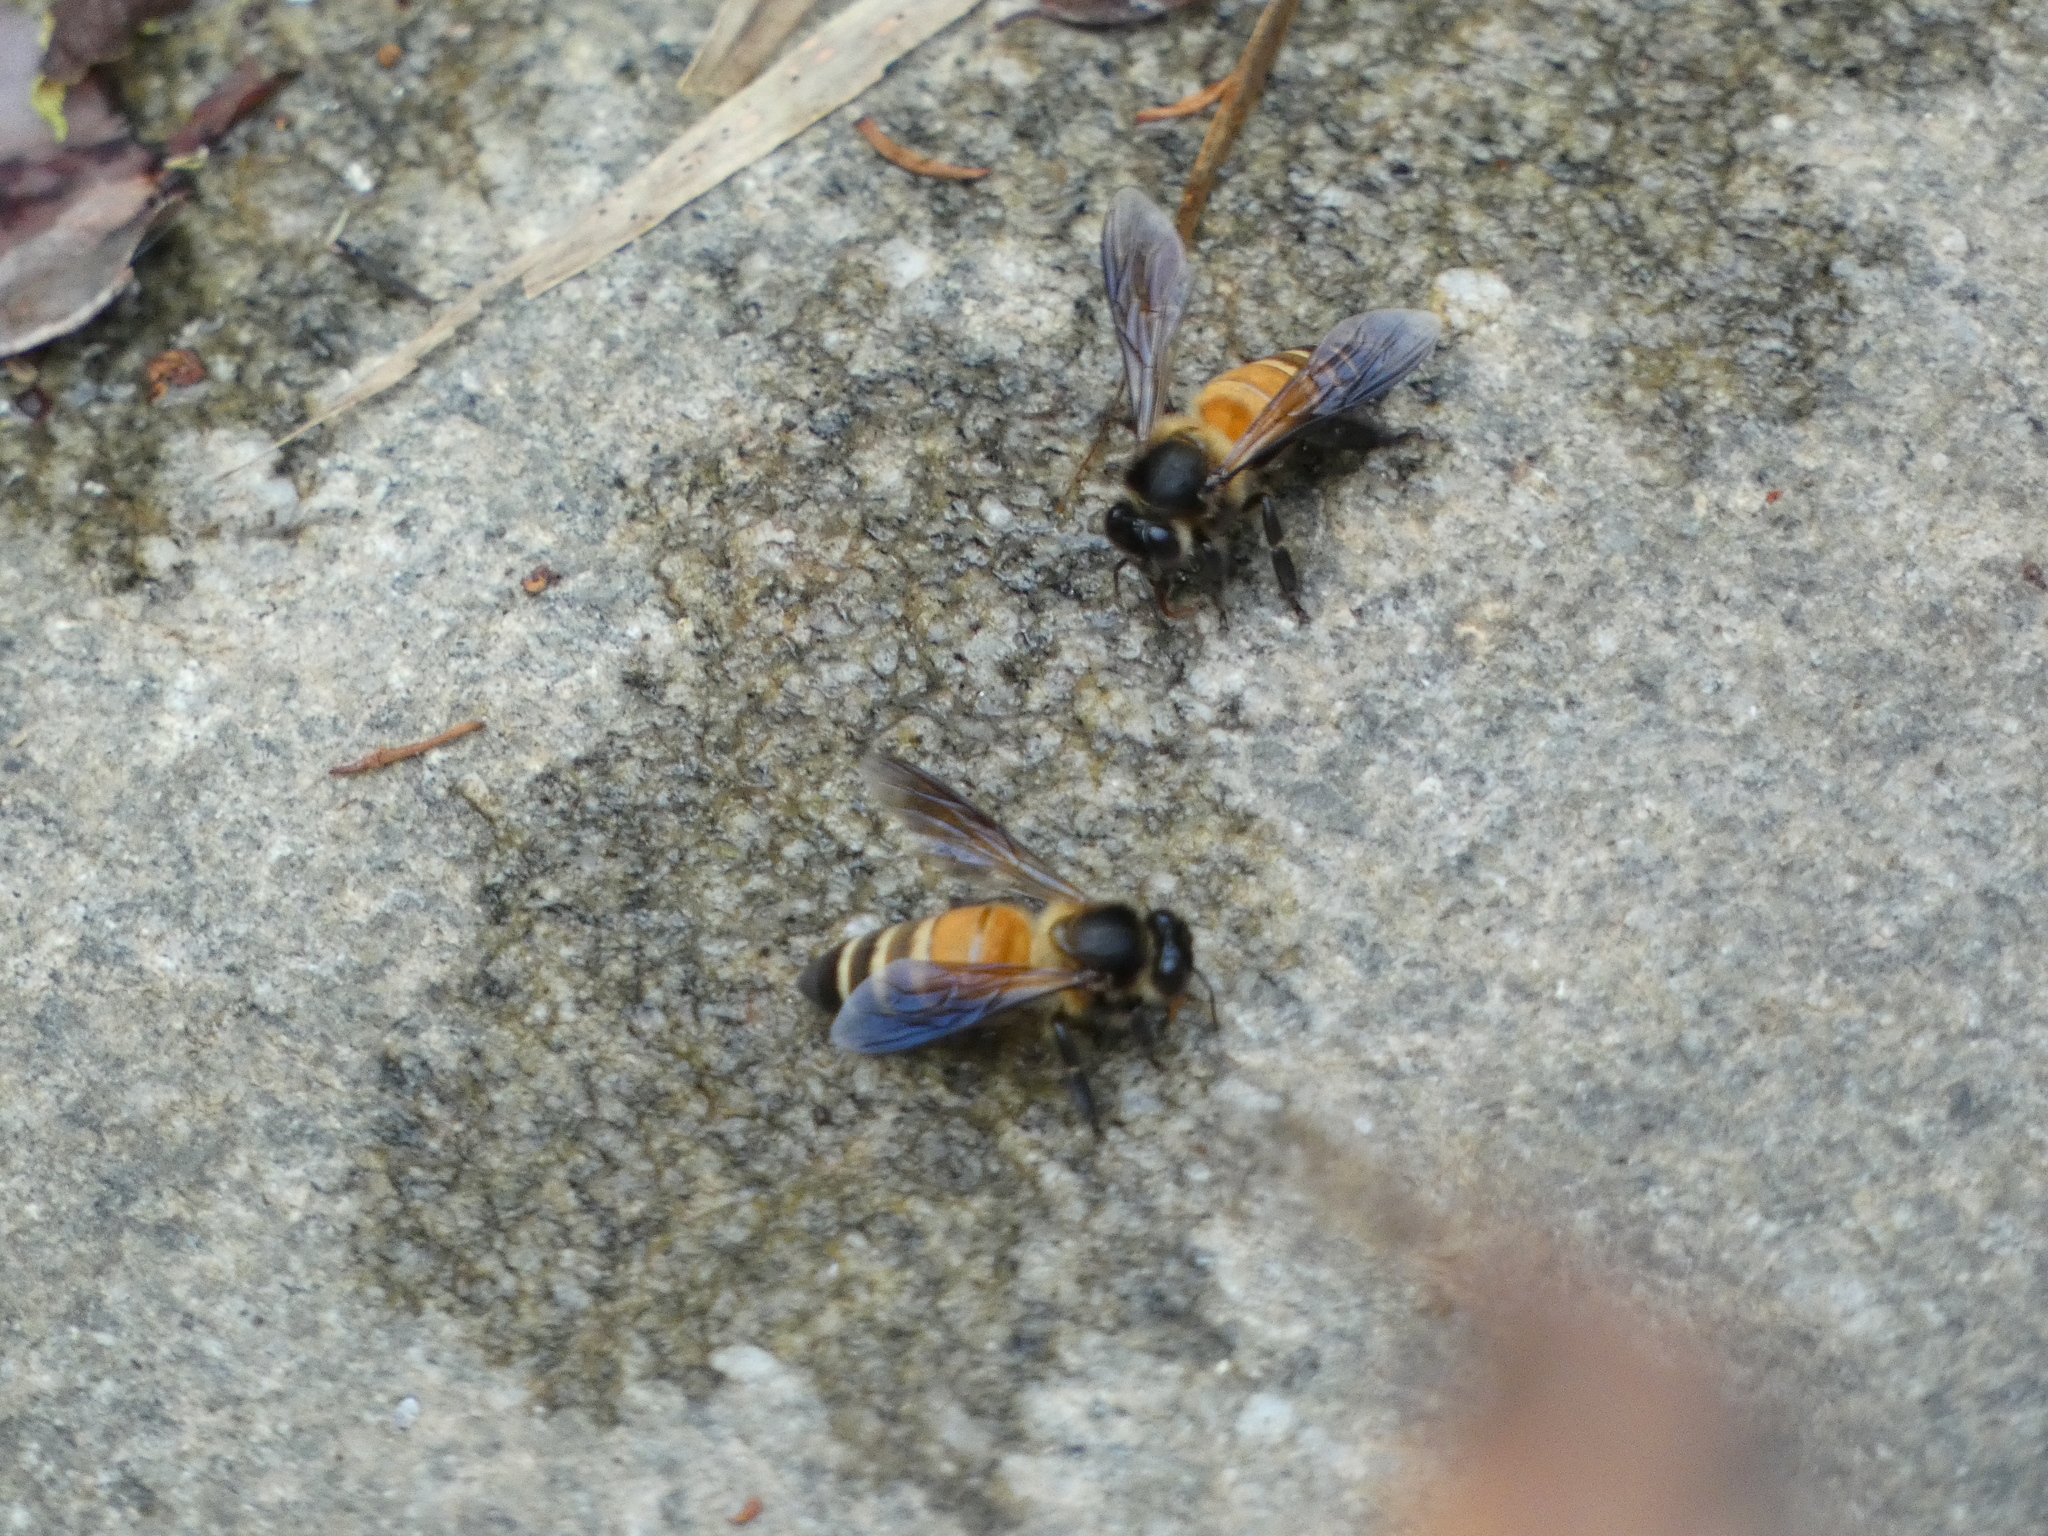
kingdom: Animalia
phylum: Arthropoda
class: Insecta
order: Hymenoptera
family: Apidae
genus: Apis
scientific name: Apis dorsata
